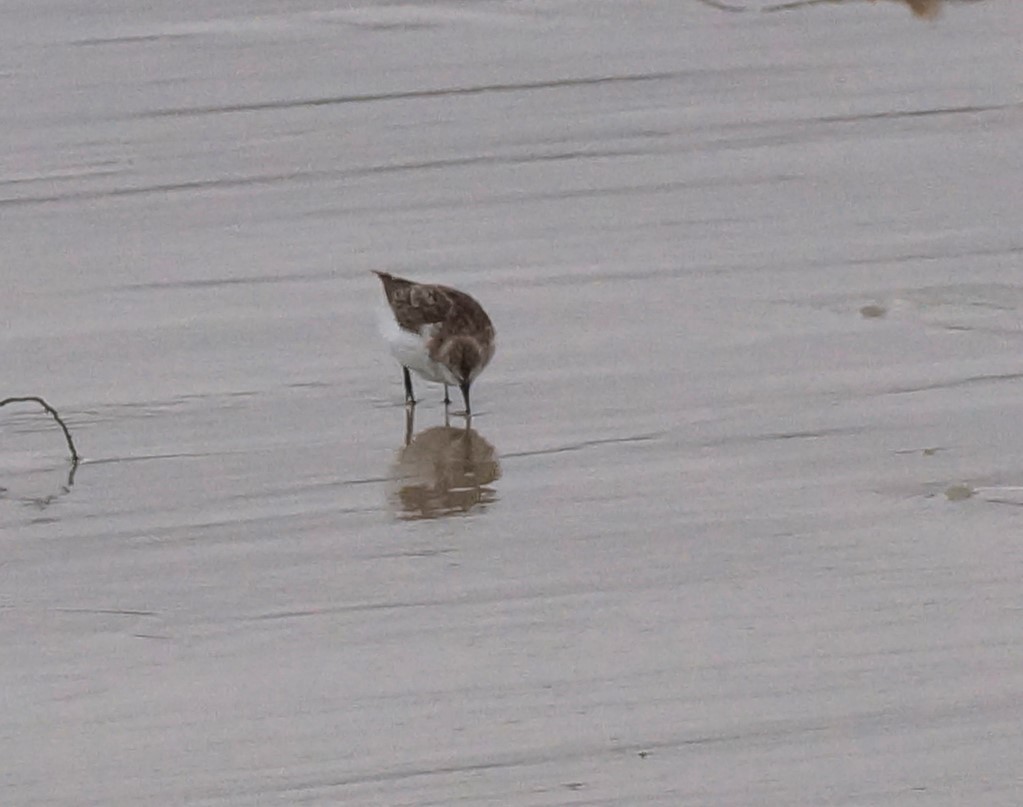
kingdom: Animalia
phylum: Chordata
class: Aves
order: Charadriiformes
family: Scolopacidae
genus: Calidris
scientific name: Calidris ruficollis
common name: Red-necked stint
